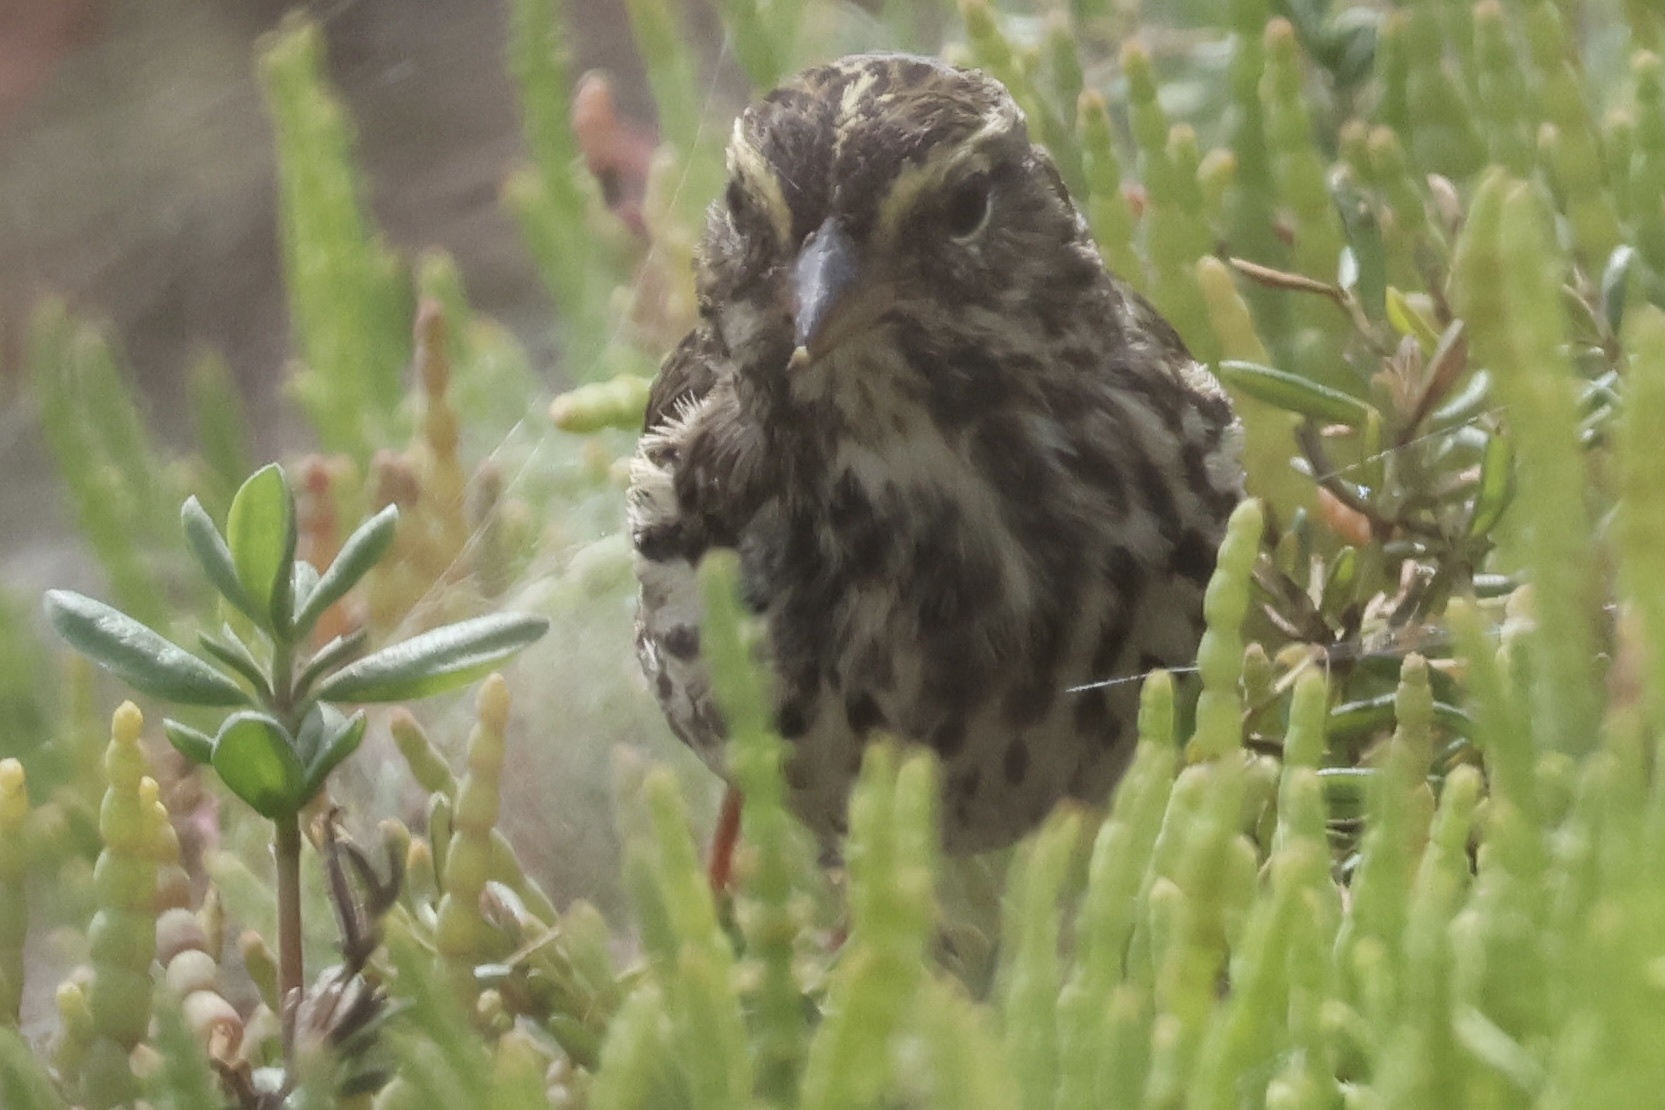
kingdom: Animalia
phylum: Chordata
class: Aves
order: Passeriformes
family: Passerellidae
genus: Passerculus
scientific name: Passerculus sandwichensis
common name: Savannah sparrow
